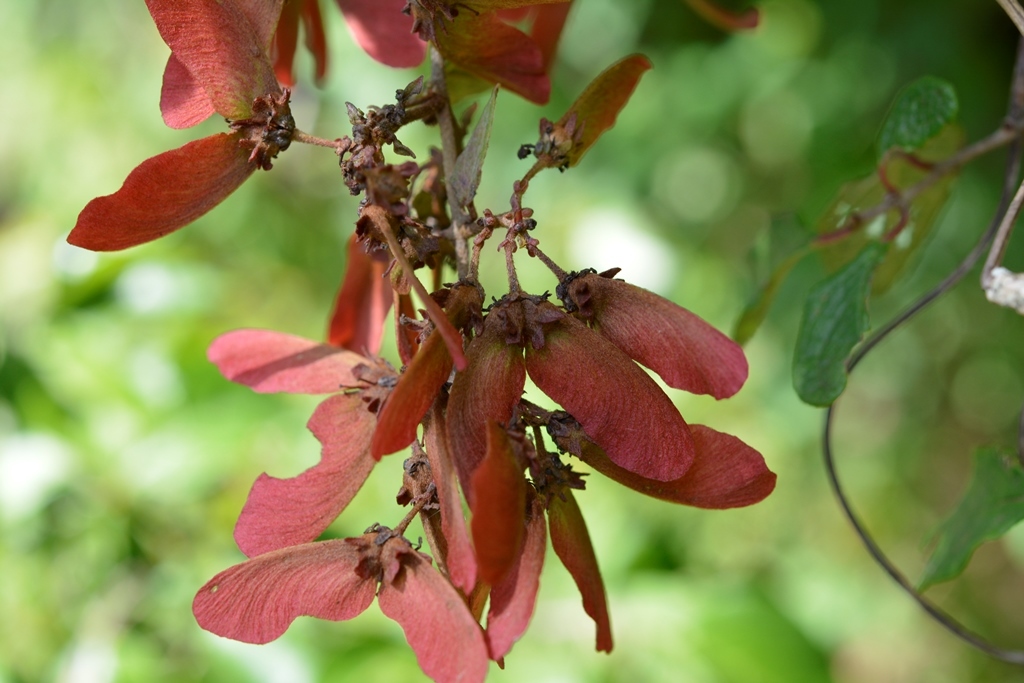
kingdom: Plantae
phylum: Tracheophyta
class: Magnoliopsida
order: Malpighiales
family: Malpighiaceae
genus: Heteropterys
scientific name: Heteropterys brachiata
